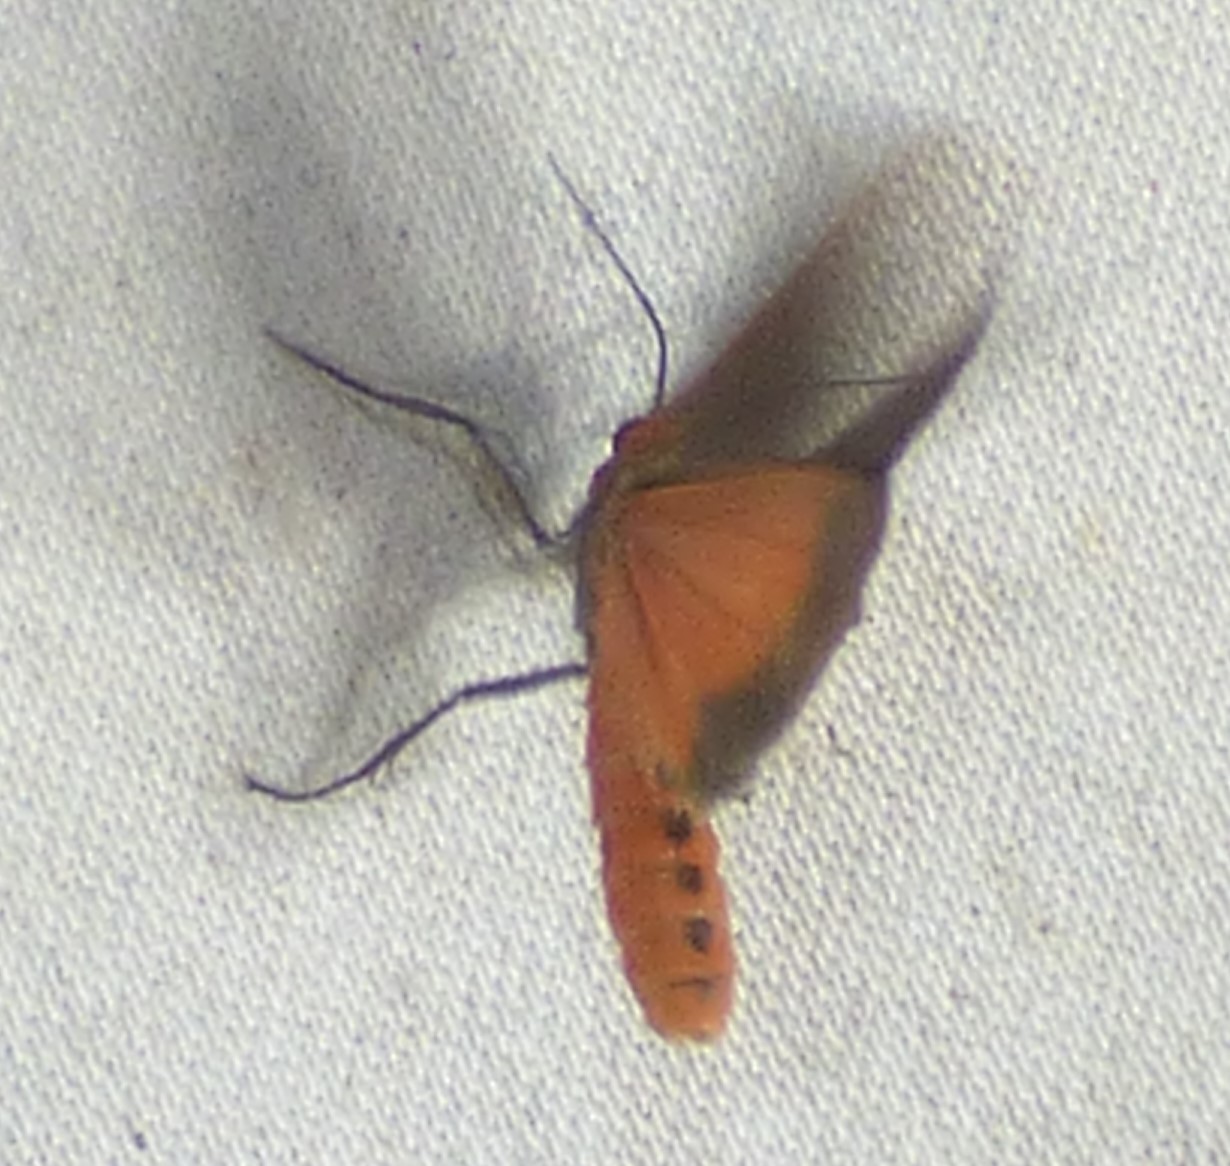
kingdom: Animalia
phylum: Arthropoda
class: Insecta
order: Lepidoptera
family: Erebidae
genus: Virbia
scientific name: Virbia laeta
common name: Joyful holomelina moth
